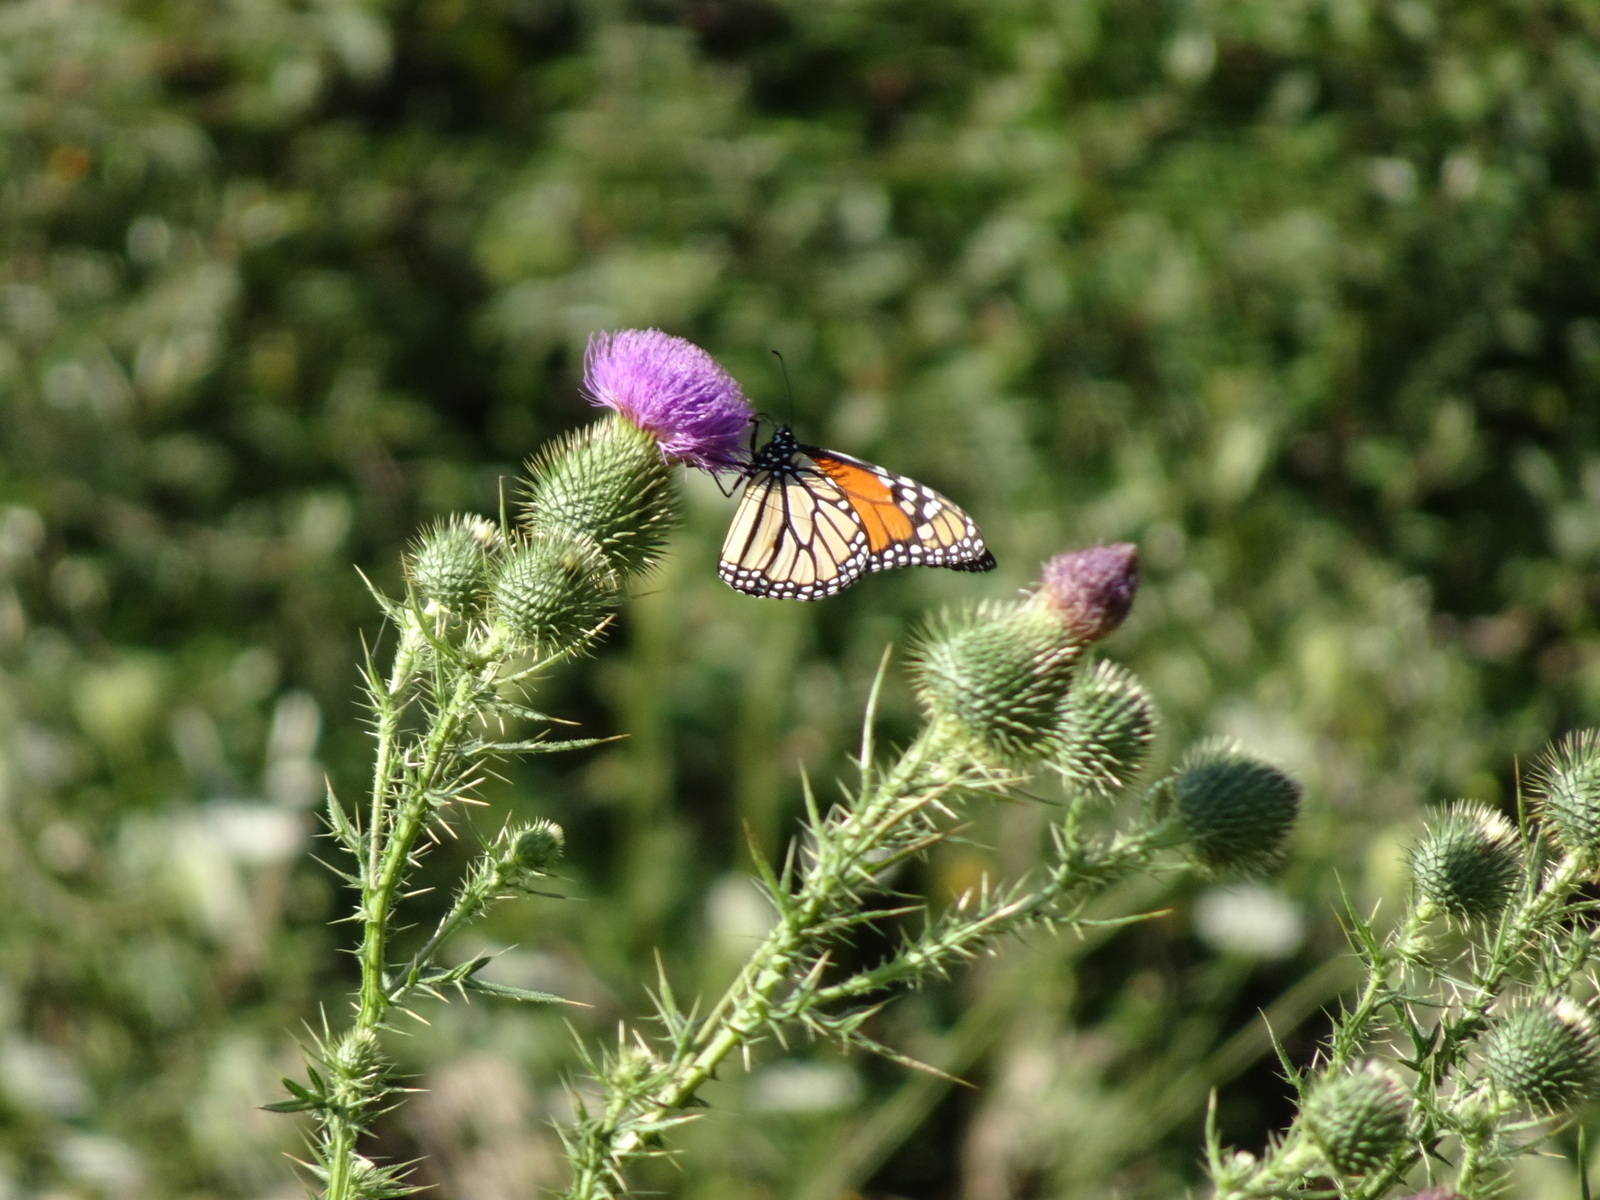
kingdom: Animalia
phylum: Arthropoda
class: Insecta
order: Lepidoptera
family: Nymphalidae
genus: Danaus
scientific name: Danaus plexippus
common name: Monarch
